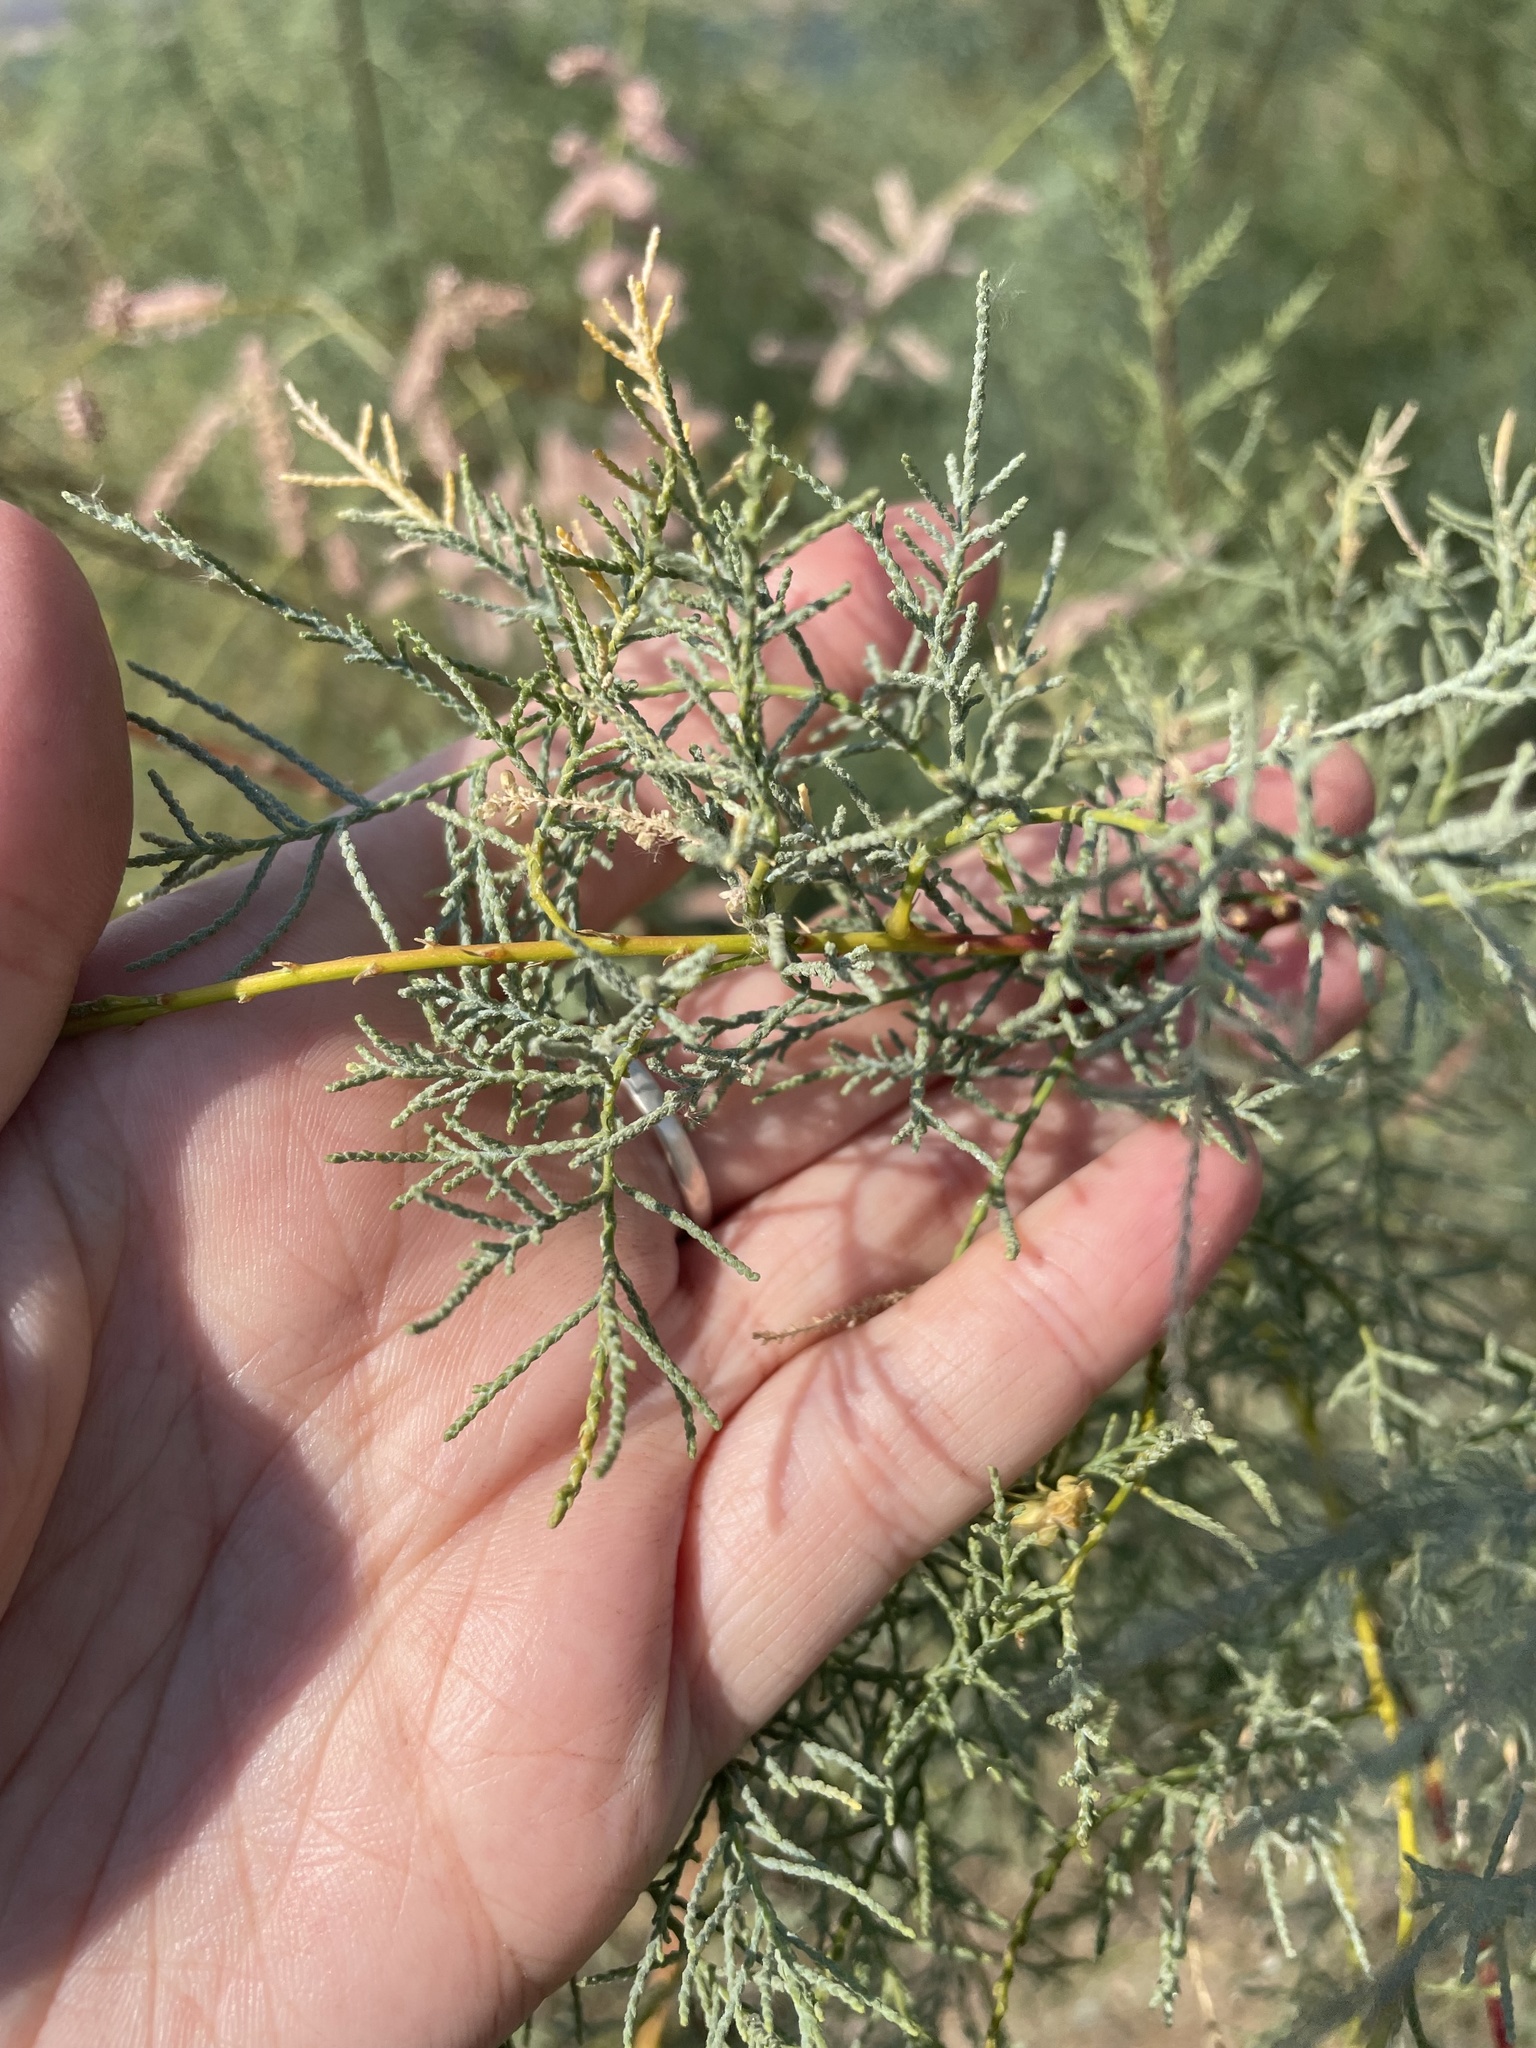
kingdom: Plantae
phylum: Tracheophyta
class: Magnoliopsida
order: Caryophyllales
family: Tamaricaceae
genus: Tamarix
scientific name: Tamarix
